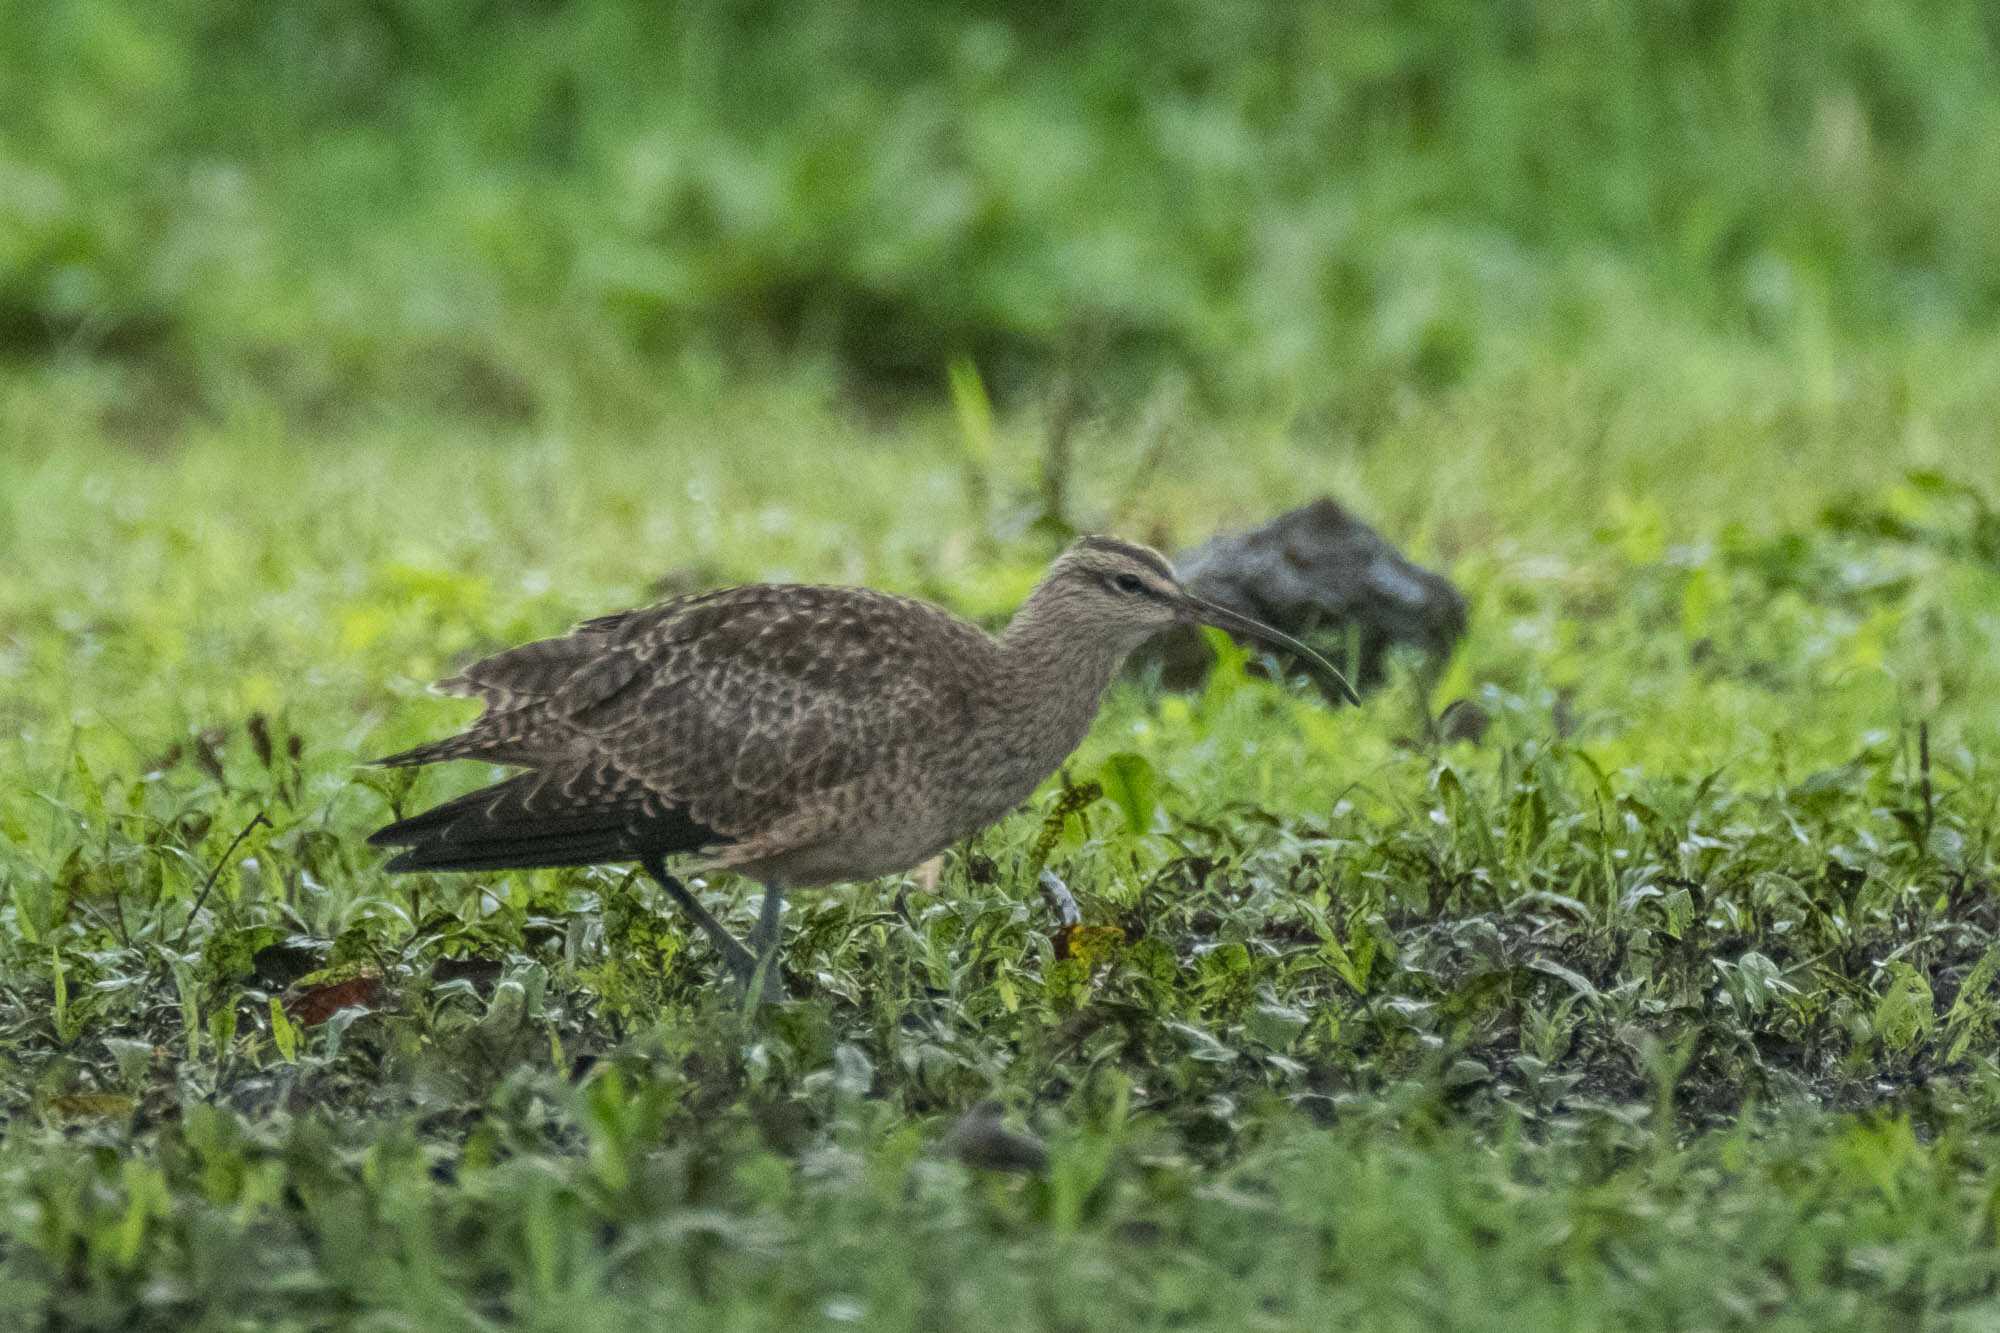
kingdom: Animalia
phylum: Chordata
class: Aves
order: Charadriiformes
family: Scolopacidae
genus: Numenius
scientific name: Numenius phaeopus
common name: Whimbrel
